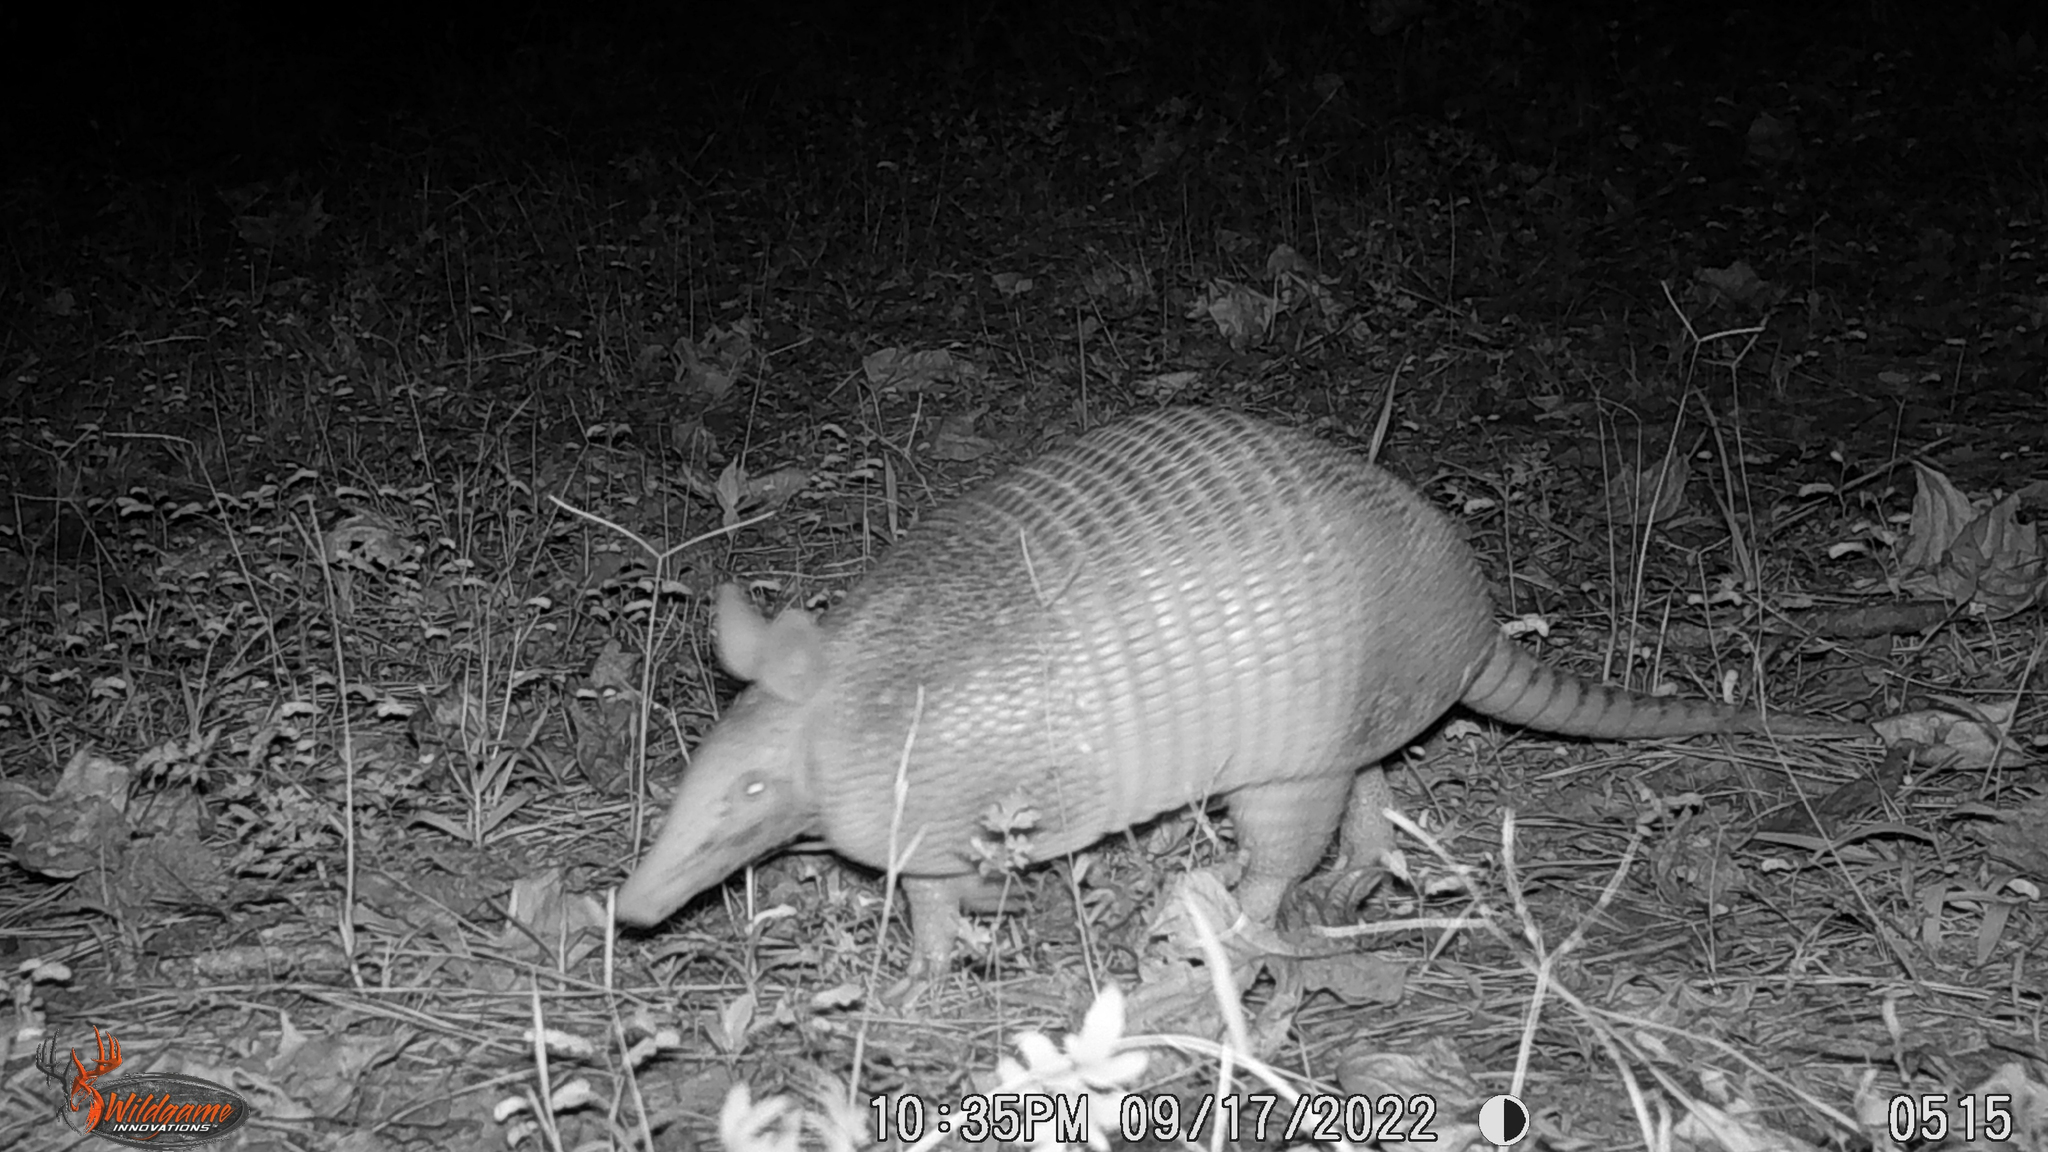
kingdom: Animalia
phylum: Chordata
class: Mammalia
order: Cingulata
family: Dasypodidae
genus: Dasypus
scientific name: Dasypus novemcinctus
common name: Nine-banded armadillo
